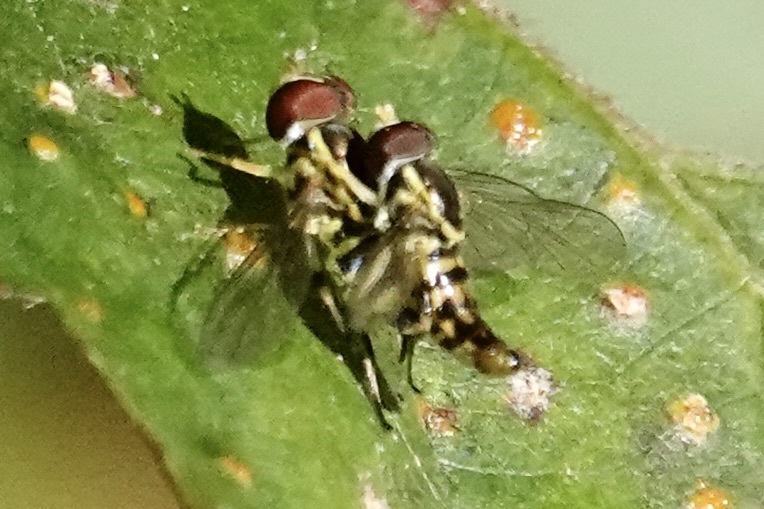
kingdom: Animalia
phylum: Arthropoda
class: Insecta
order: Diptera
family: Syrphidae
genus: Toxomerus
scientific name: Toxomerus geminatus
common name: Eastern calligrapher
